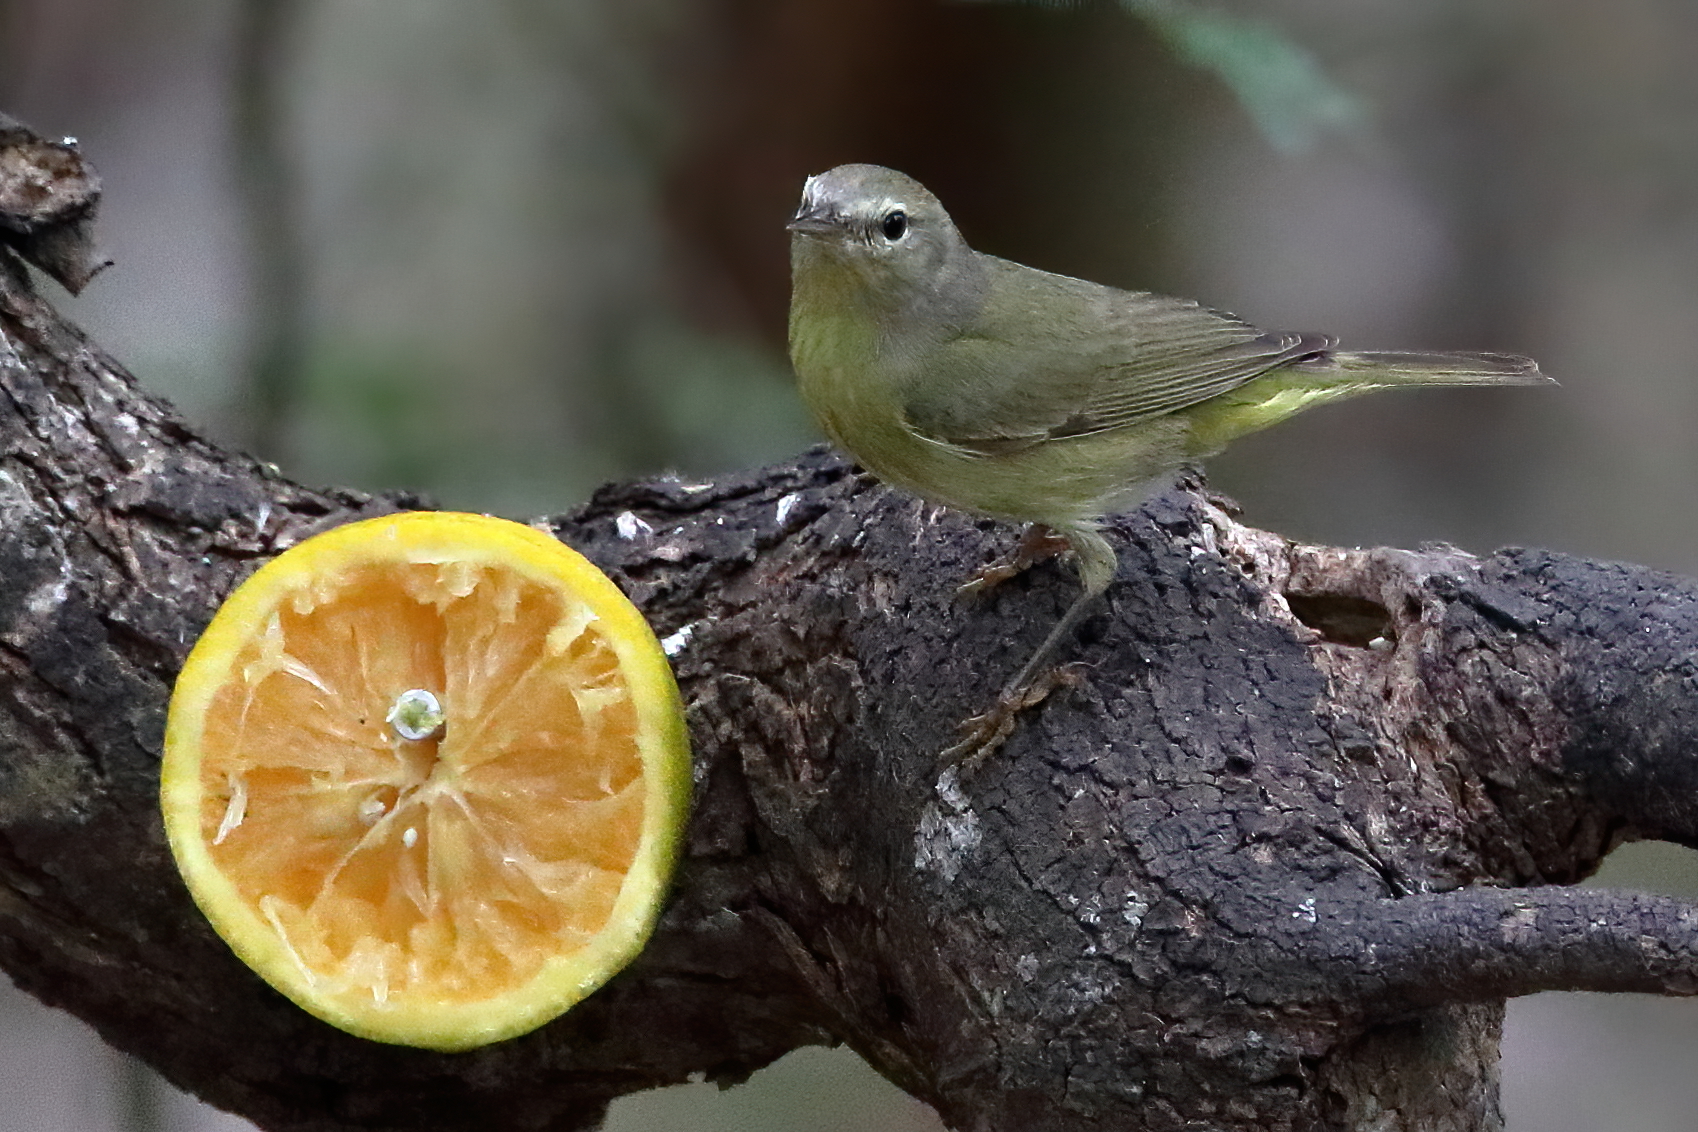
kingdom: Animalia
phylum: Chordata
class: Aves
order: Passeriformes
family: Parulidae
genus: Leiothlypis
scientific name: Leiothlypis celata
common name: Orange-crowned warbler
